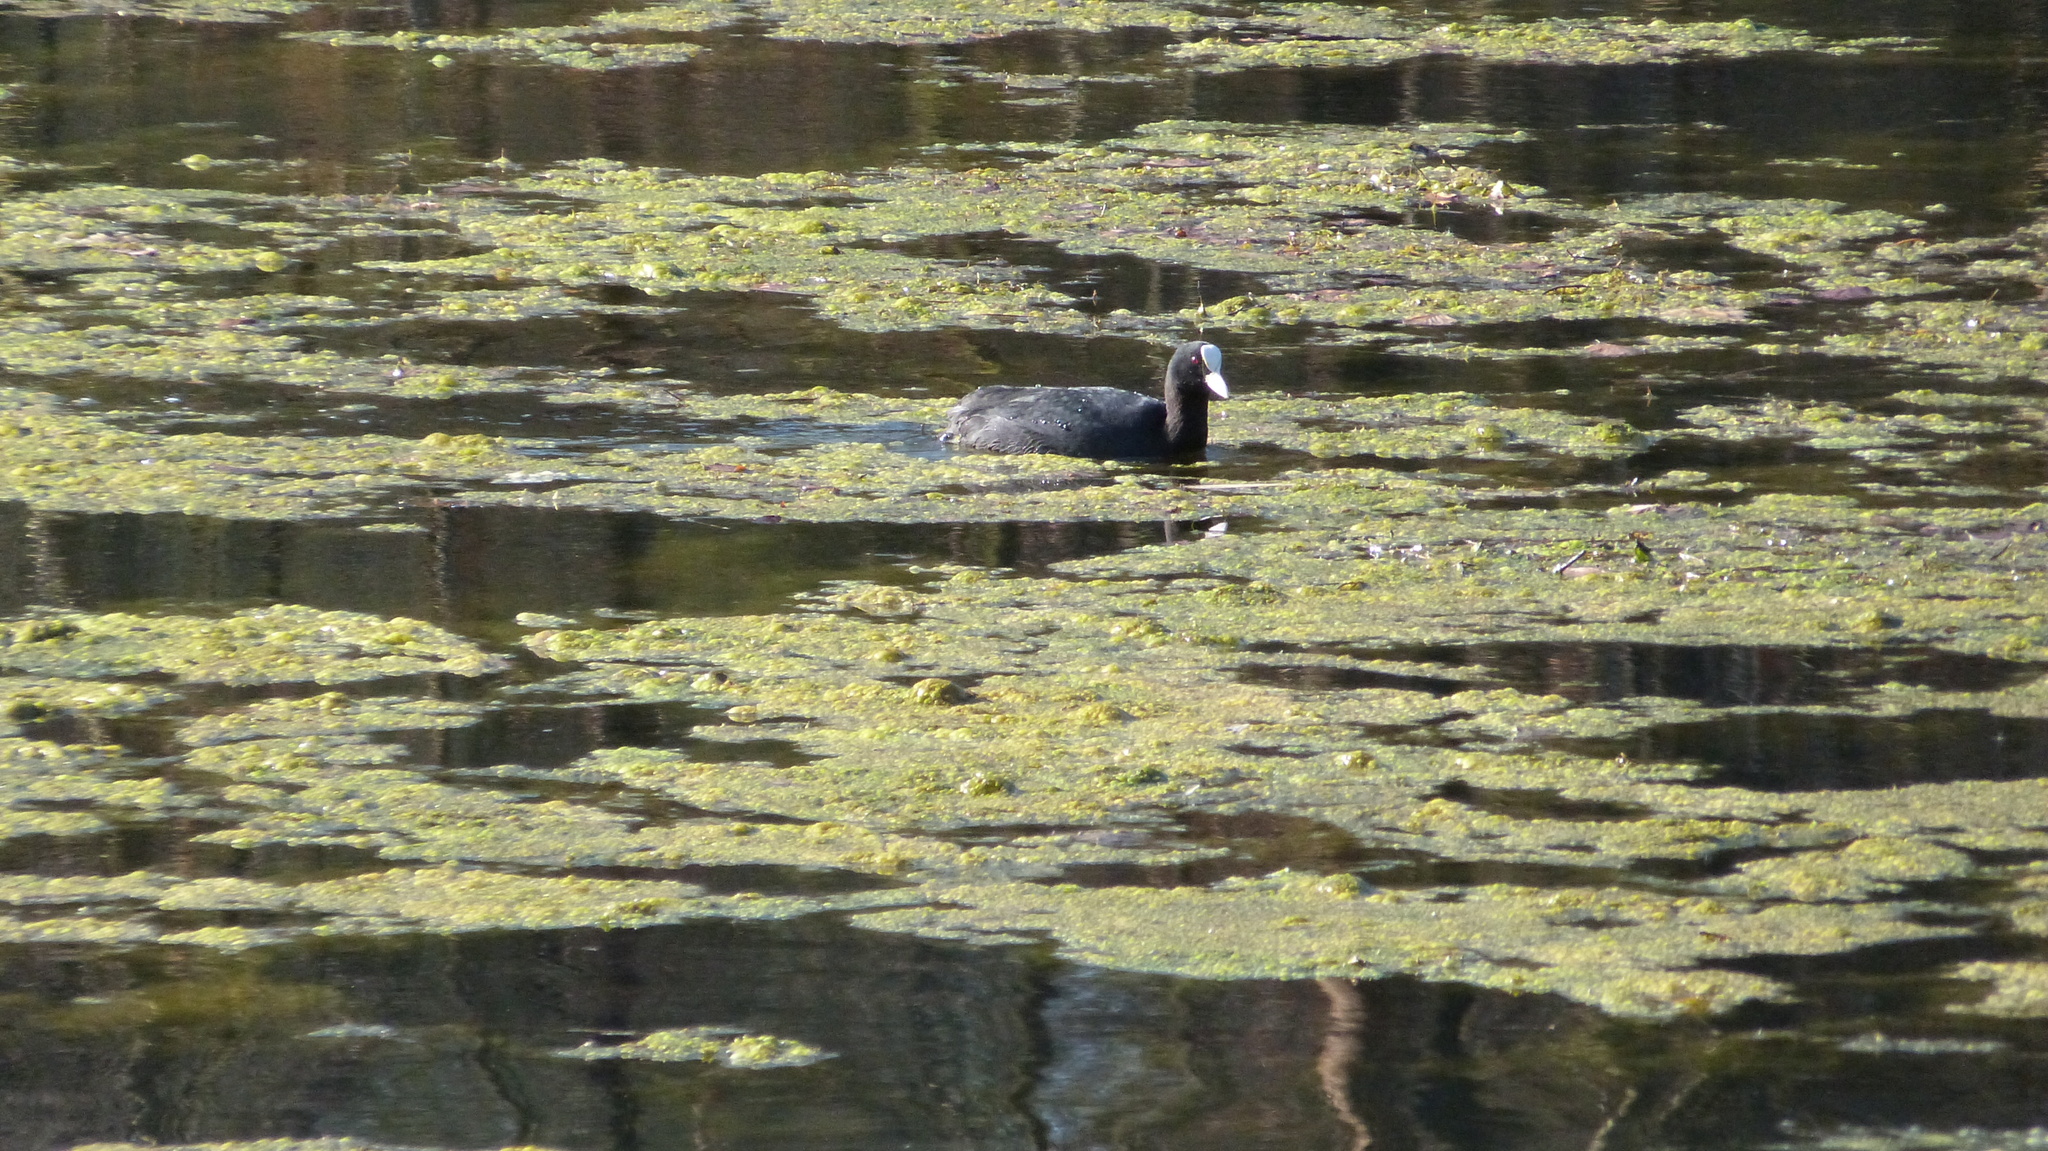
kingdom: Animalia
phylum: Chordata
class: Aves
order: Gruiformes
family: Rallidae
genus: Fulica
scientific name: Fulica atra
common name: Eurasian coot
